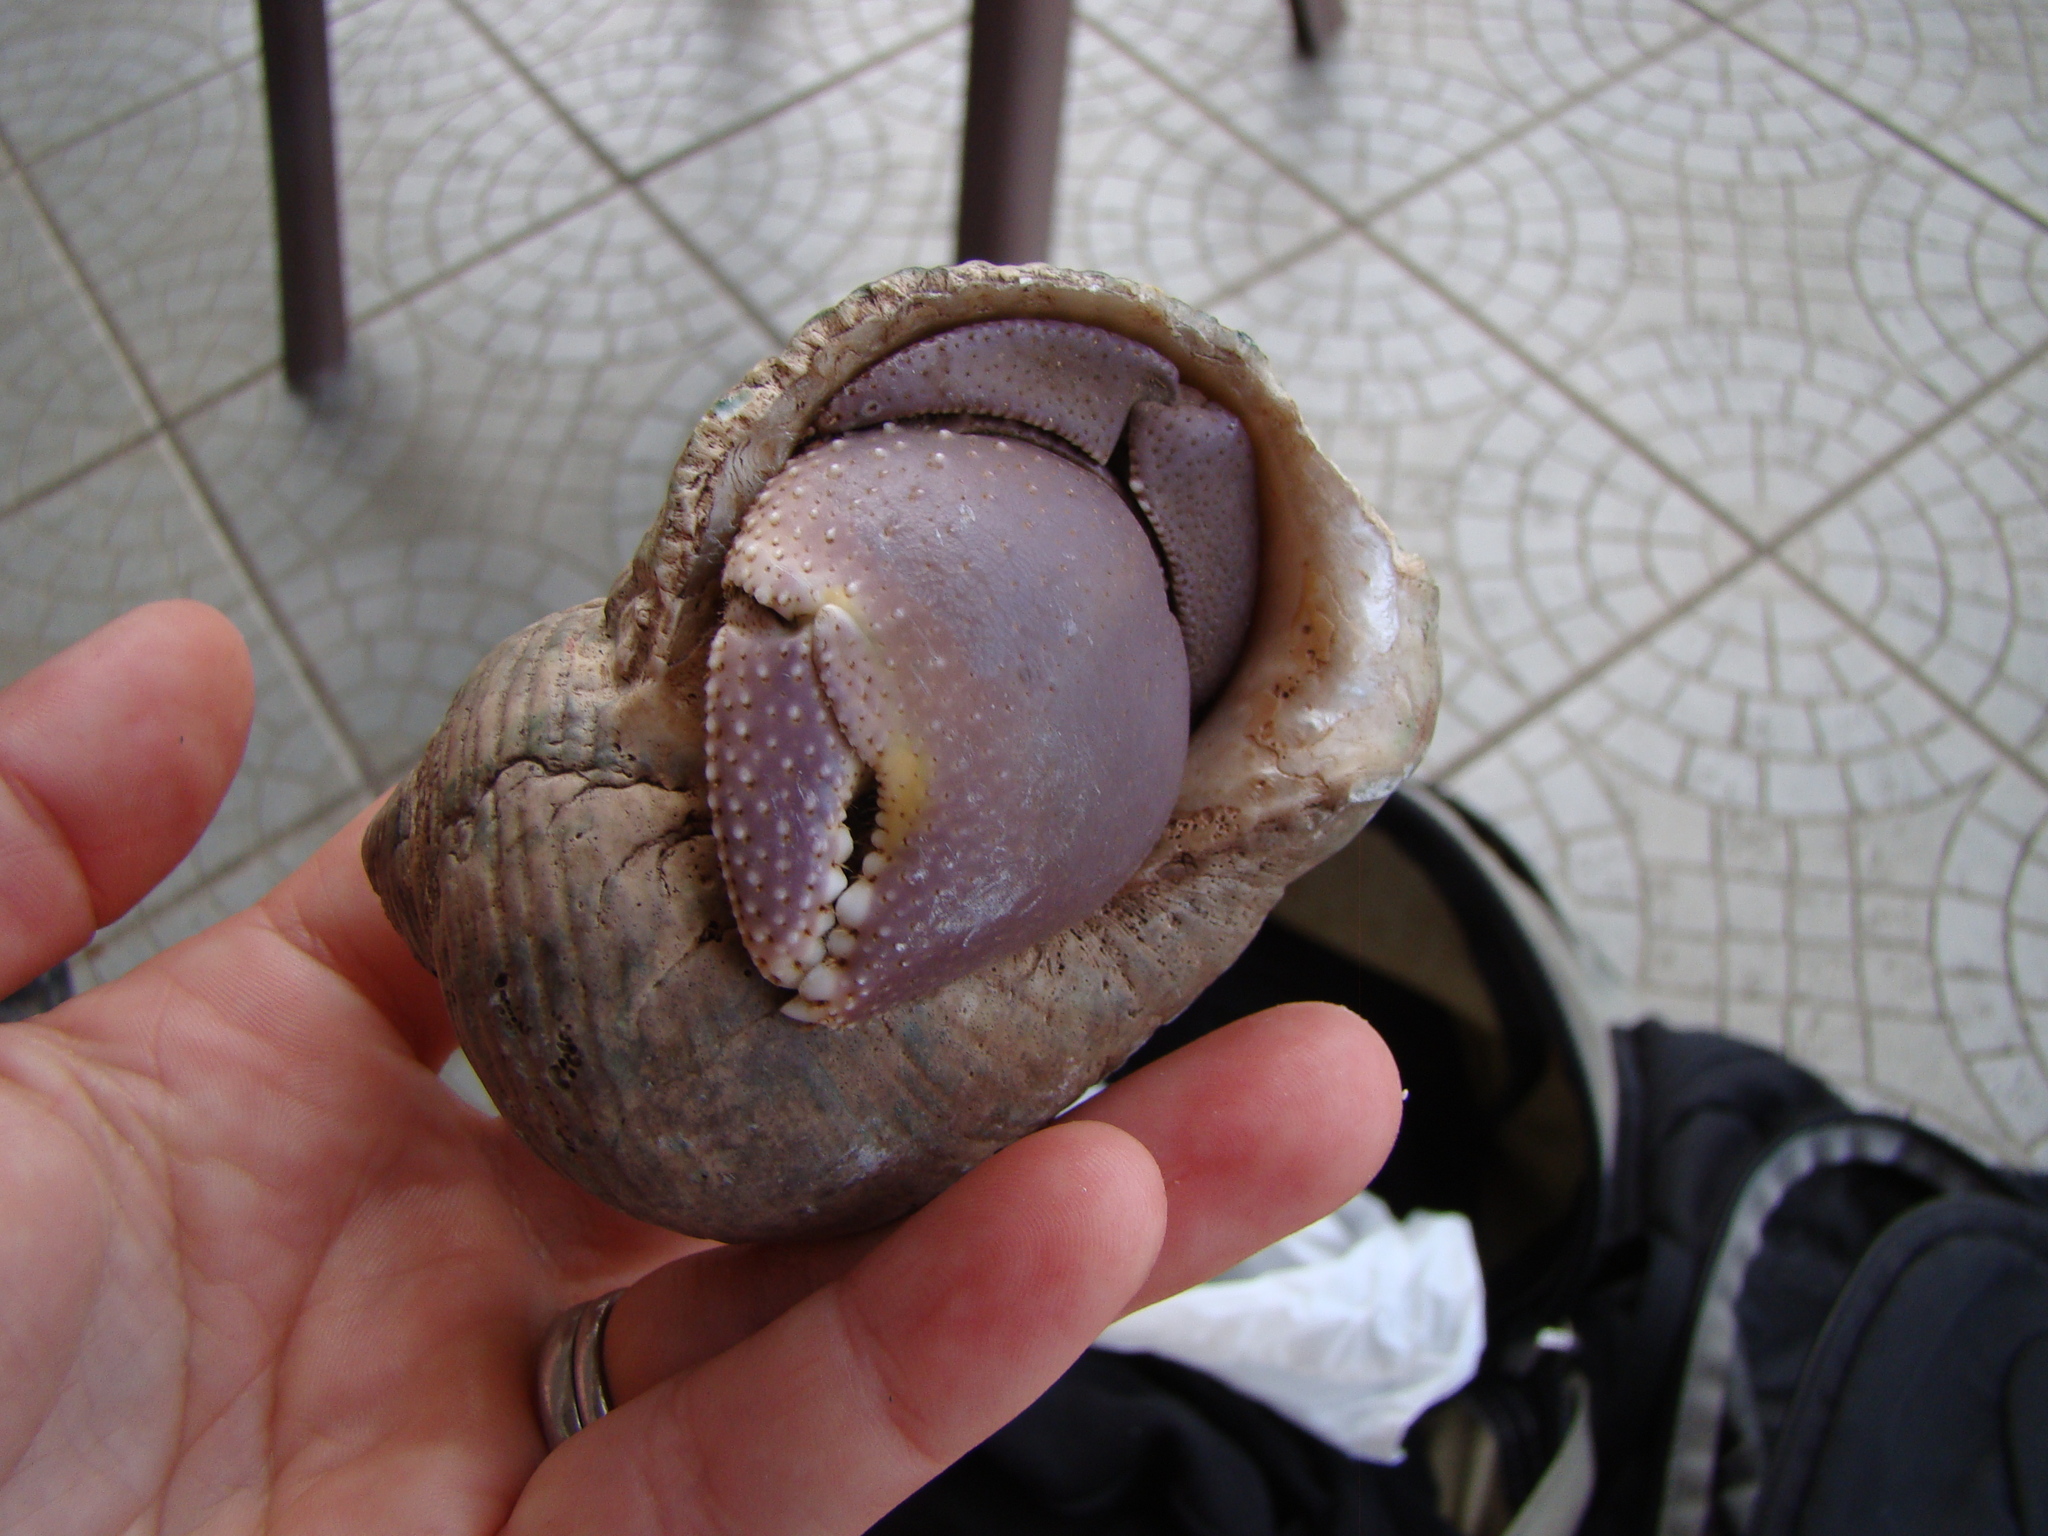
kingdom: Animalia
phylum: Arthropoda
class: Malacostraca
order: Decapoda
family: Coenobitidae
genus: Coenobita
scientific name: Coenobita brevimanus
